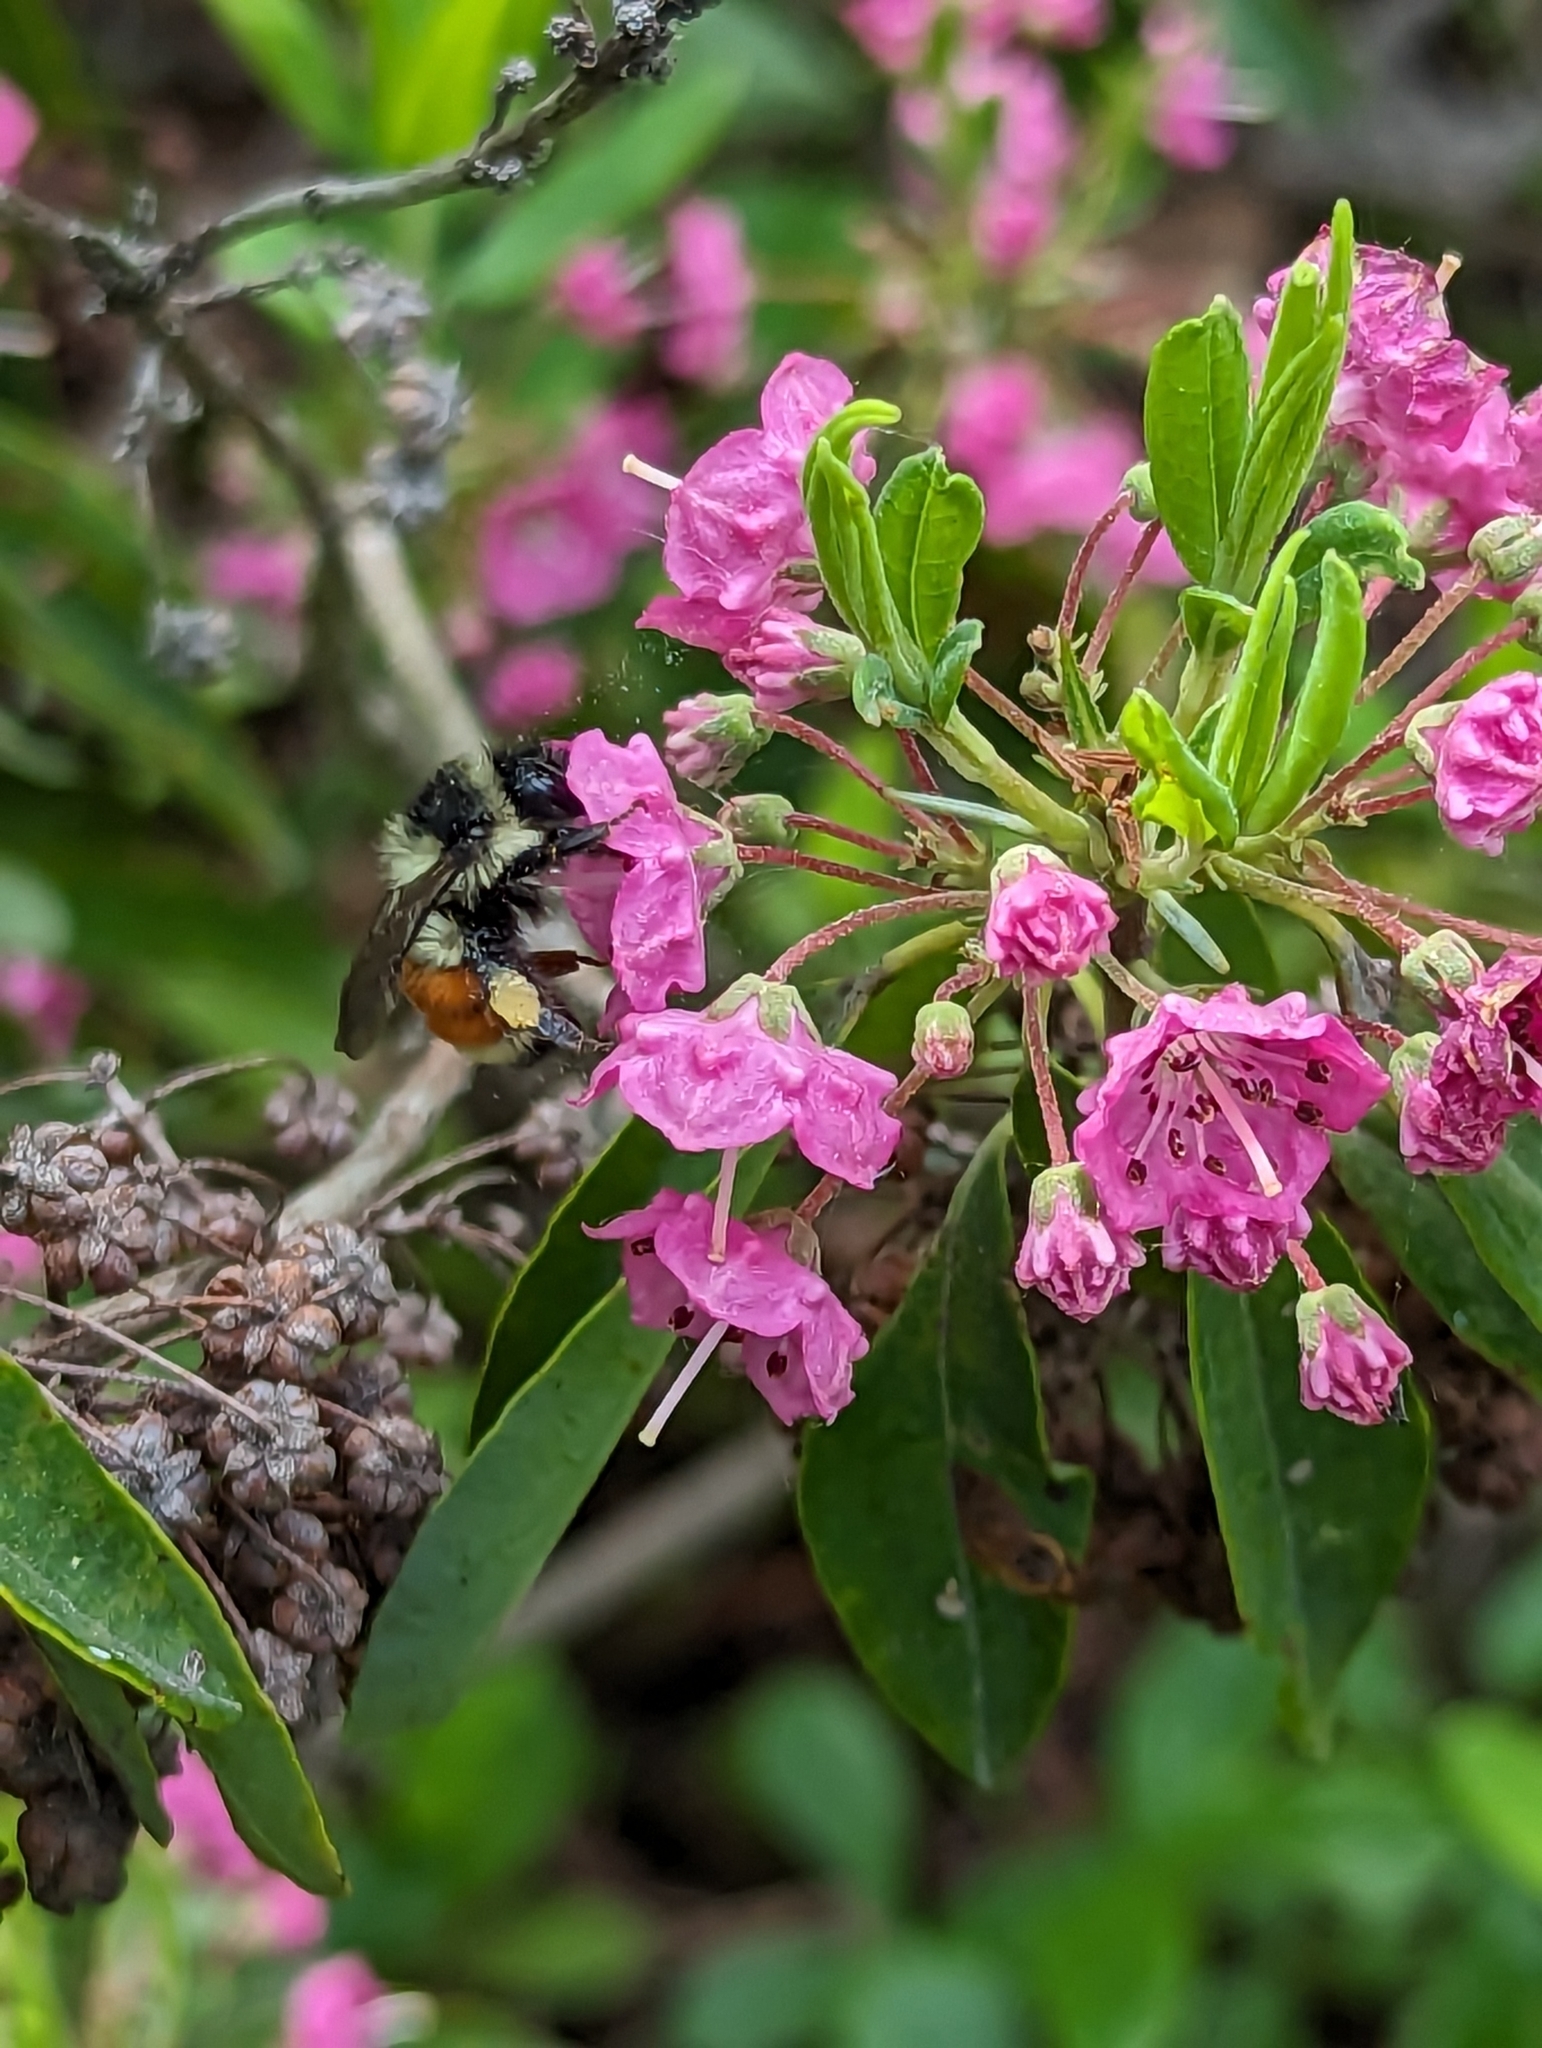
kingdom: Animalia
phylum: Arthropoda
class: Insecta
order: Hymenoptera
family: Apidae
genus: Bombus
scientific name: Bombus ternarius
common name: Tri-colored bumble bee
